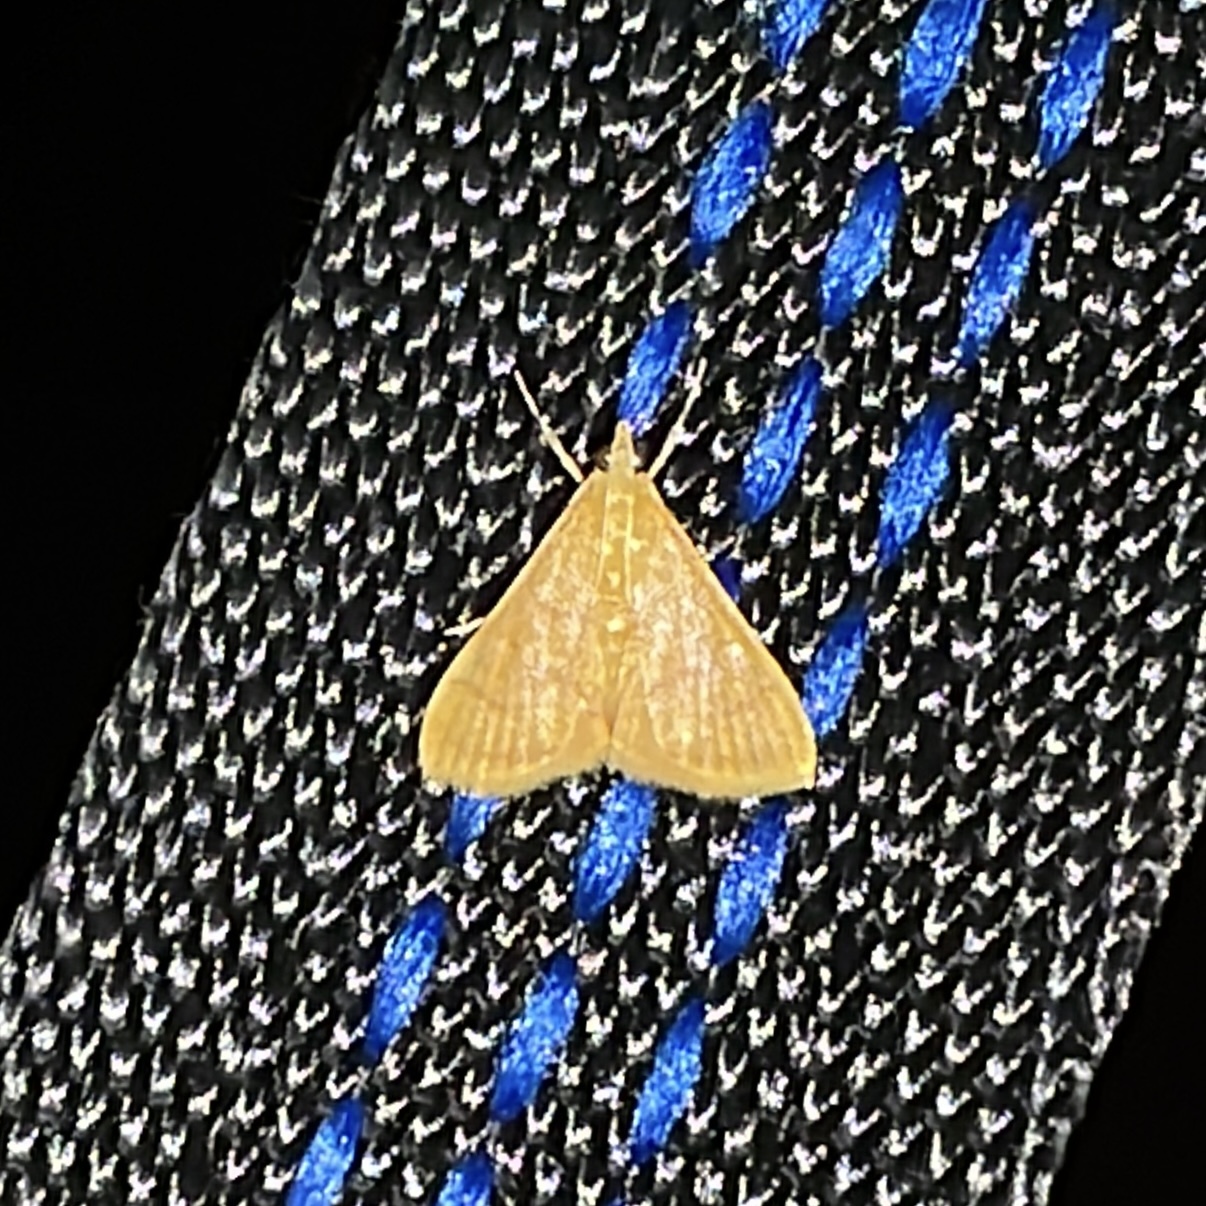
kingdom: Animalia
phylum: Arthropoda
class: Insecta
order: Lepidoptera
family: Crambidae
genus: Pyrausta
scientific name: Pyrausta insignitalis
